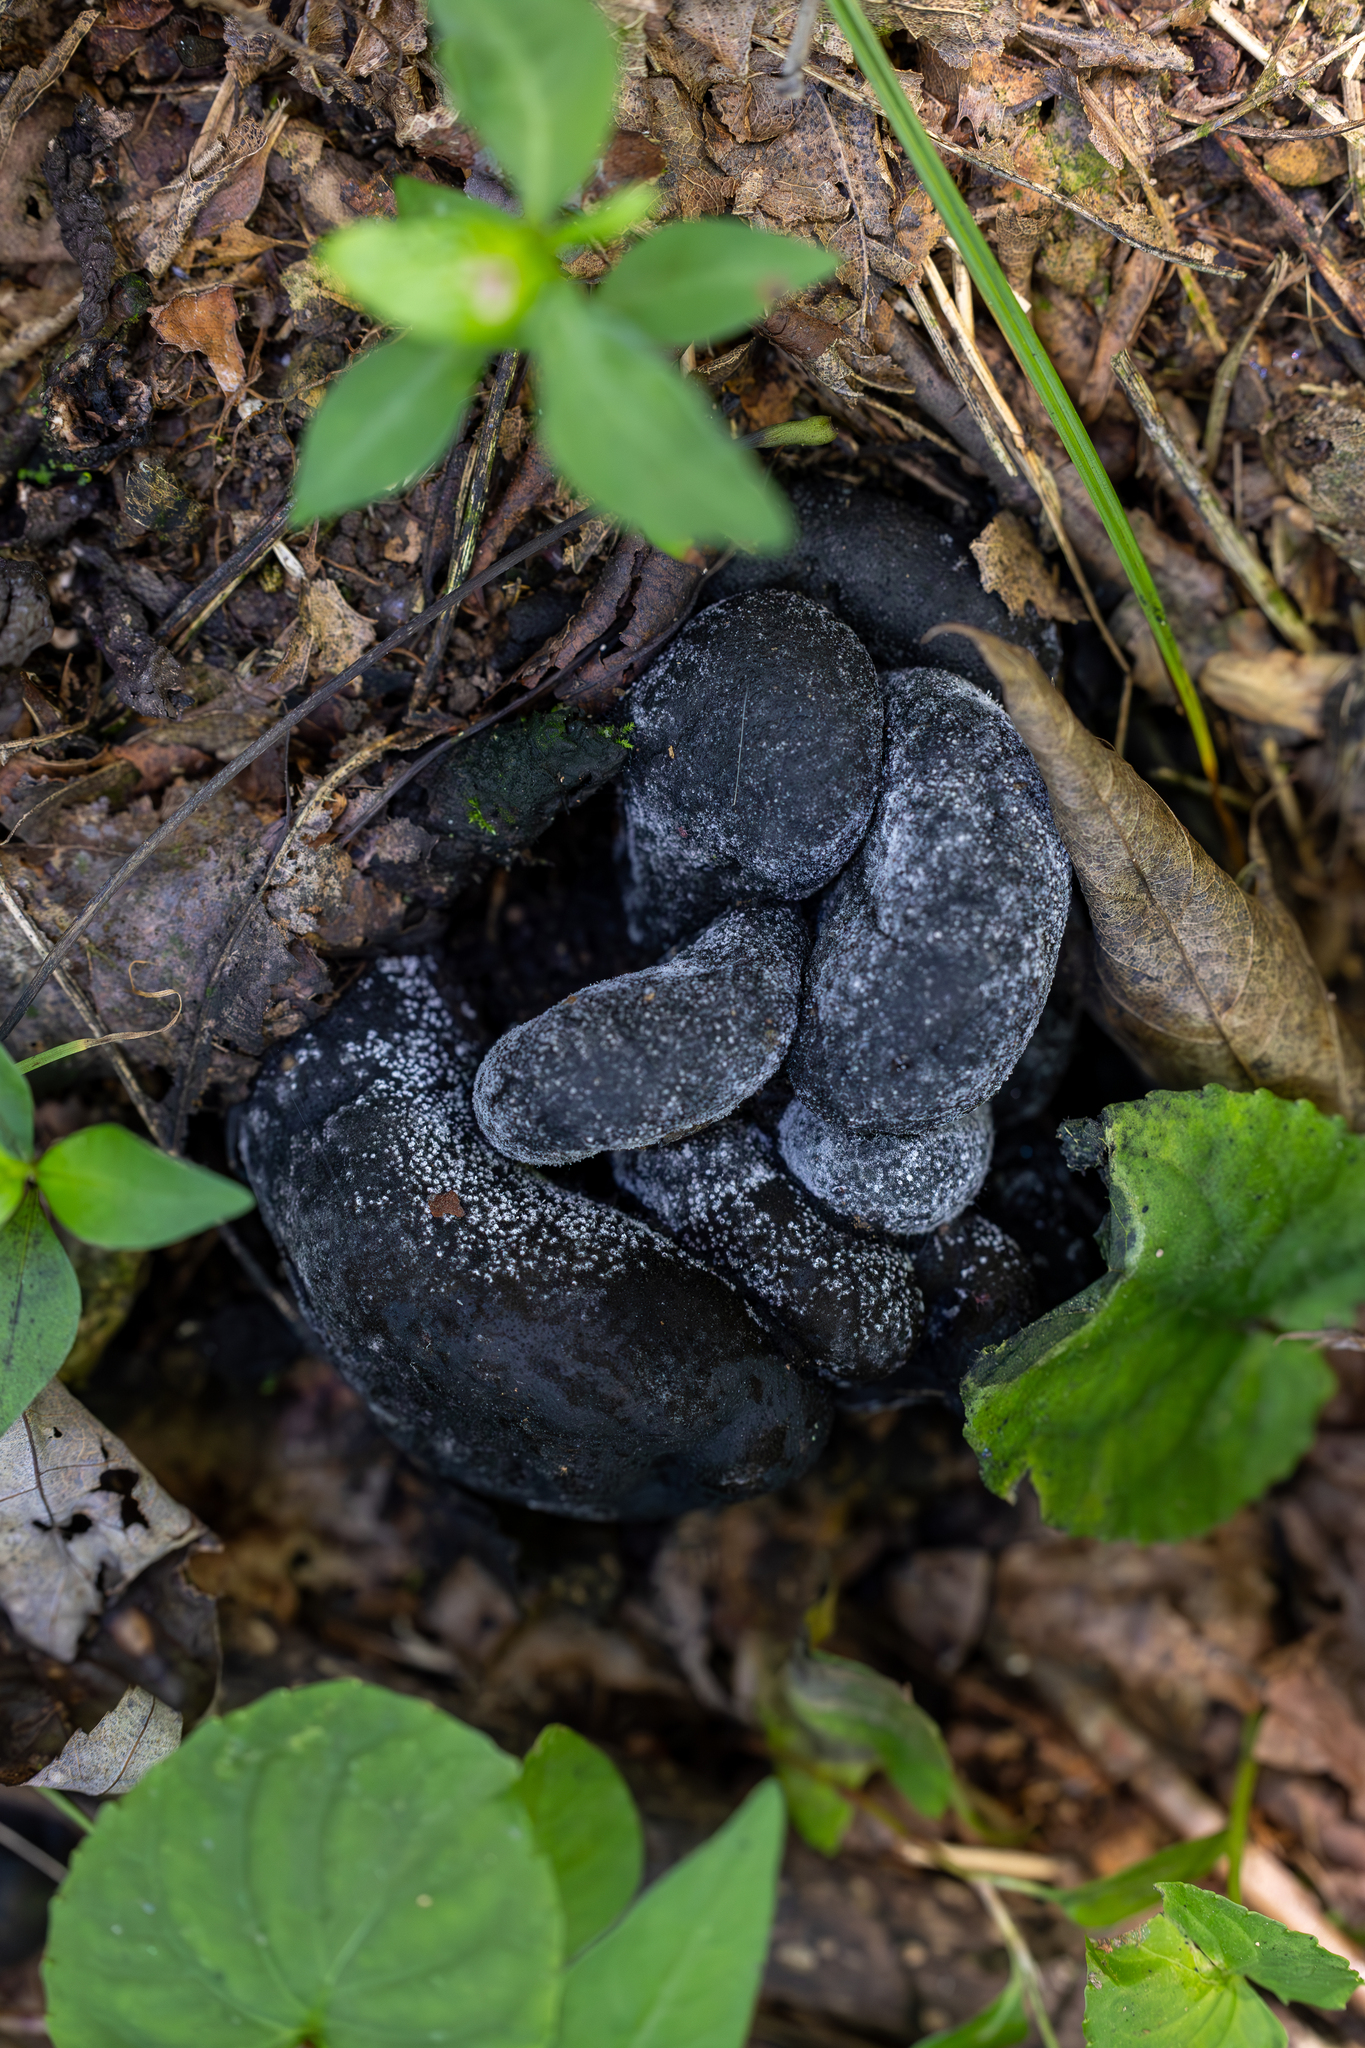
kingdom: Fungi
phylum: Ascomycota
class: Sordariomycetes
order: Xylariales
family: Xylariaceae
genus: Xylaria
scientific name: Xylaria polymorpha
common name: Dead man's fingers
